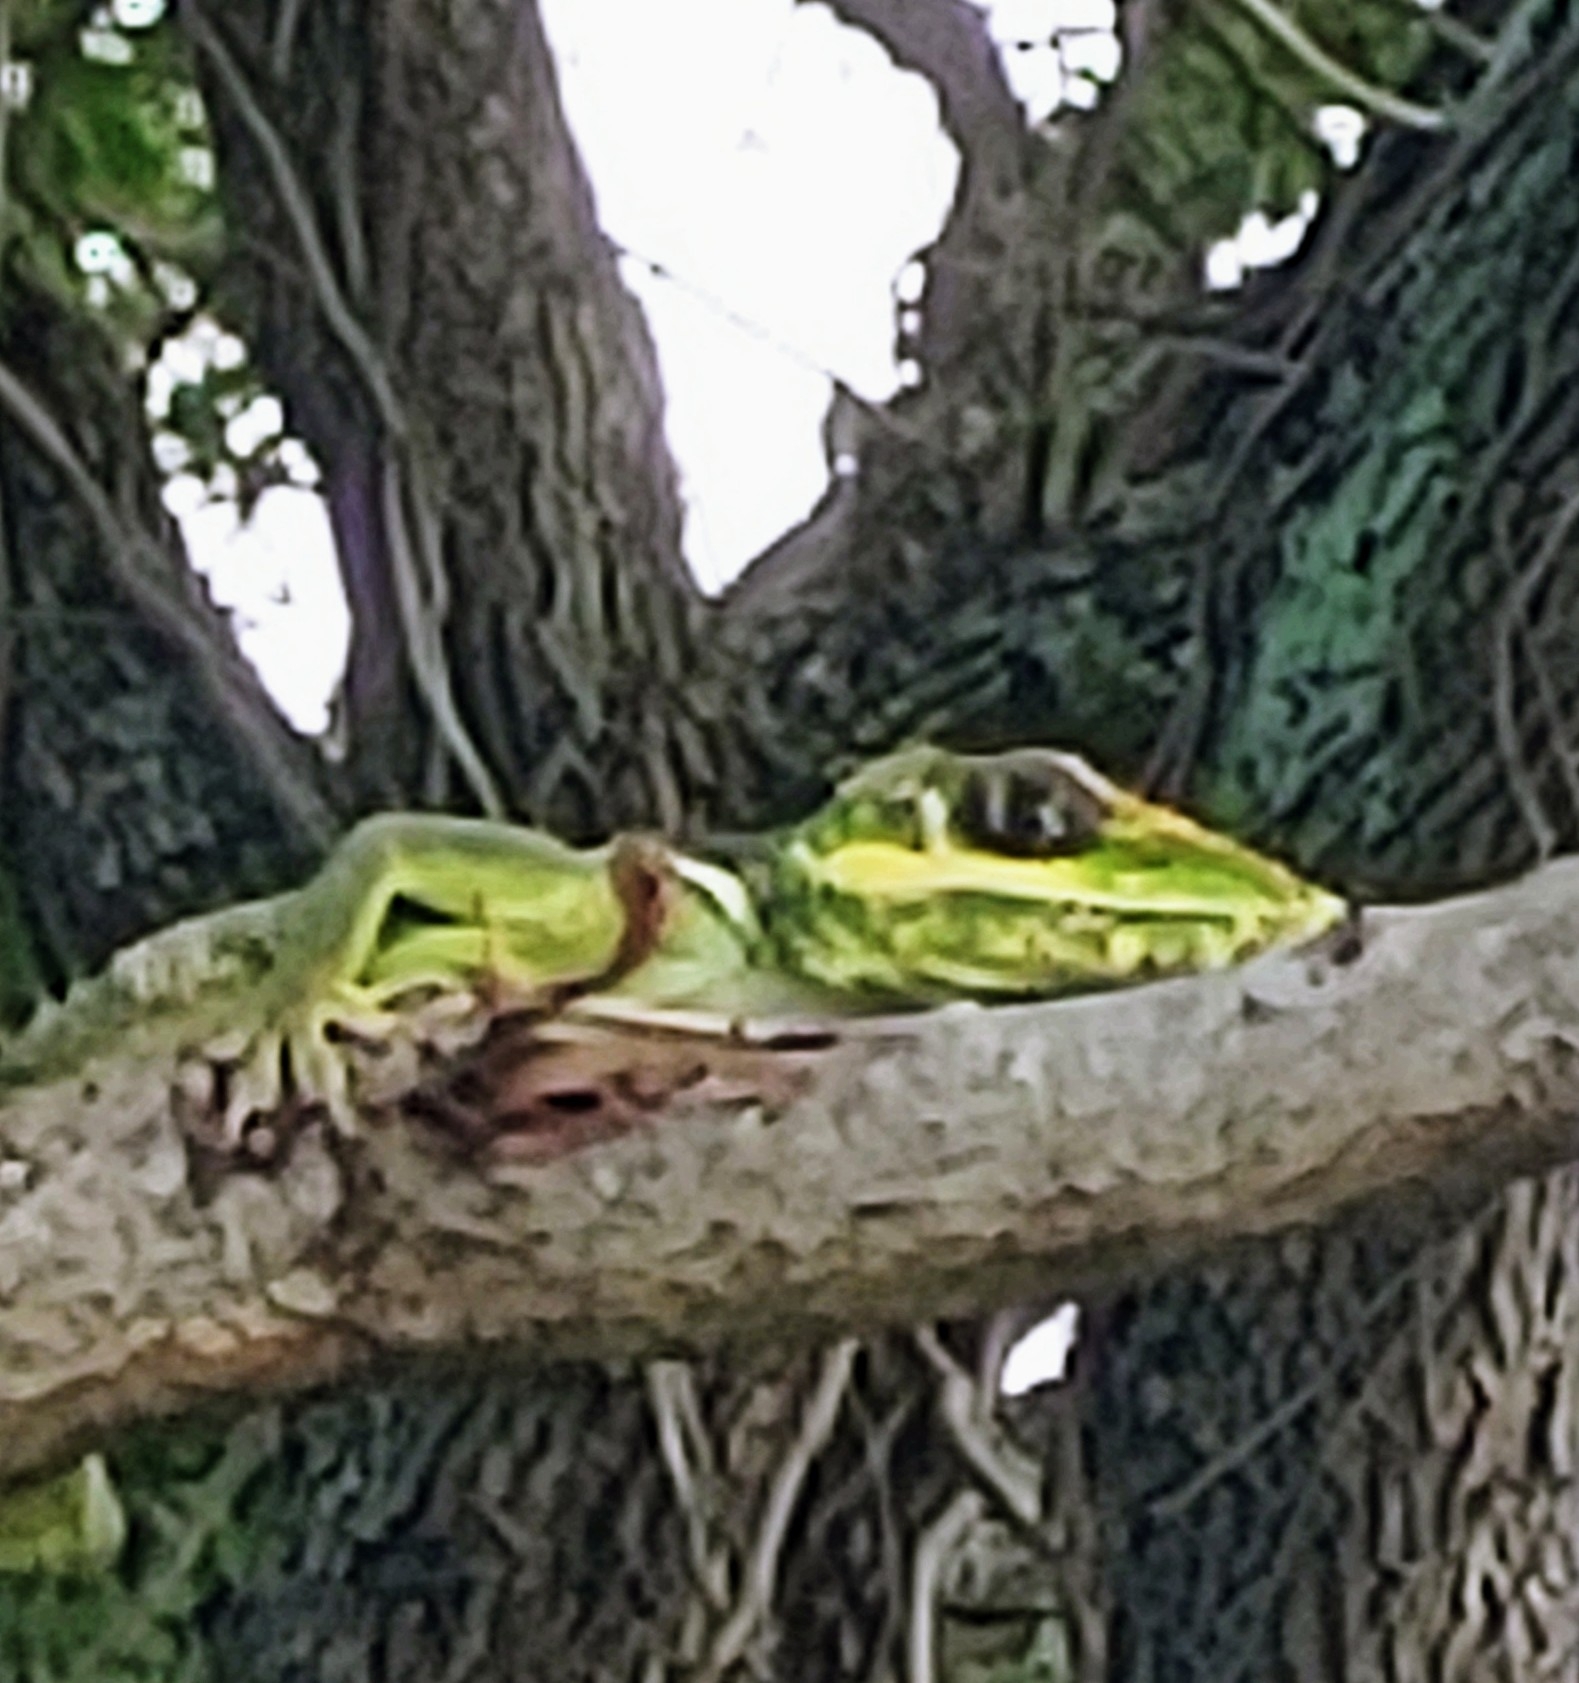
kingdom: Animalia
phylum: Chordata
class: Squamata
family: Dactyloidae
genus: Anolis
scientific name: Anolis equestris
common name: Knight anole
